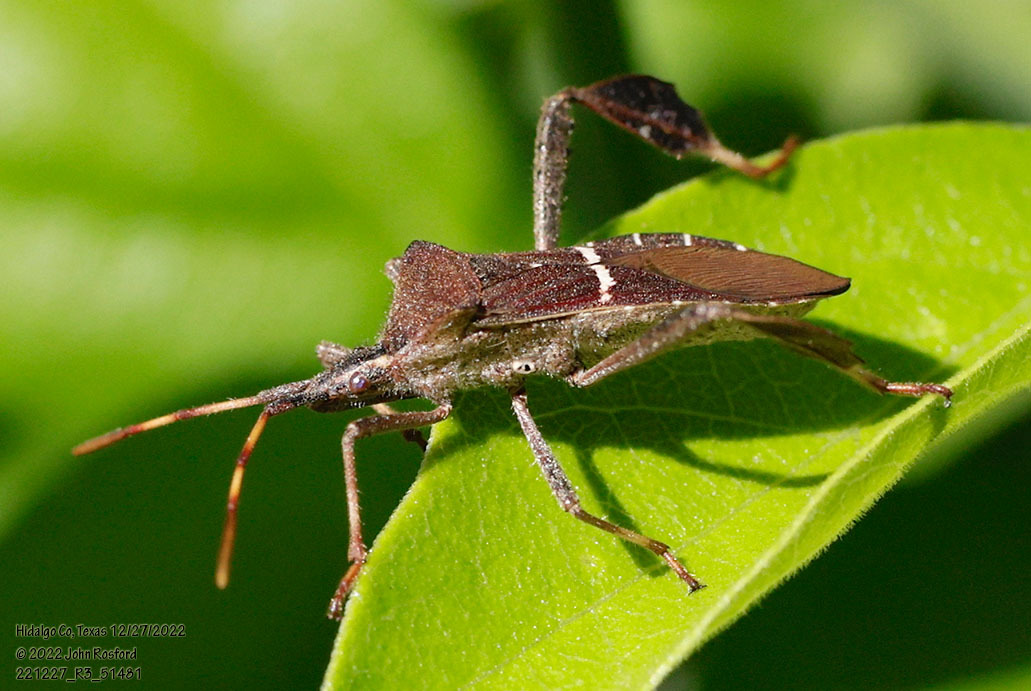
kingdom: Animalia
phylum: Arthropoda
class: Insecta
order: Hemiptera
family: Coreidae
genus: Leptoglossus
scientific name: Leptoglossus phyllopus
